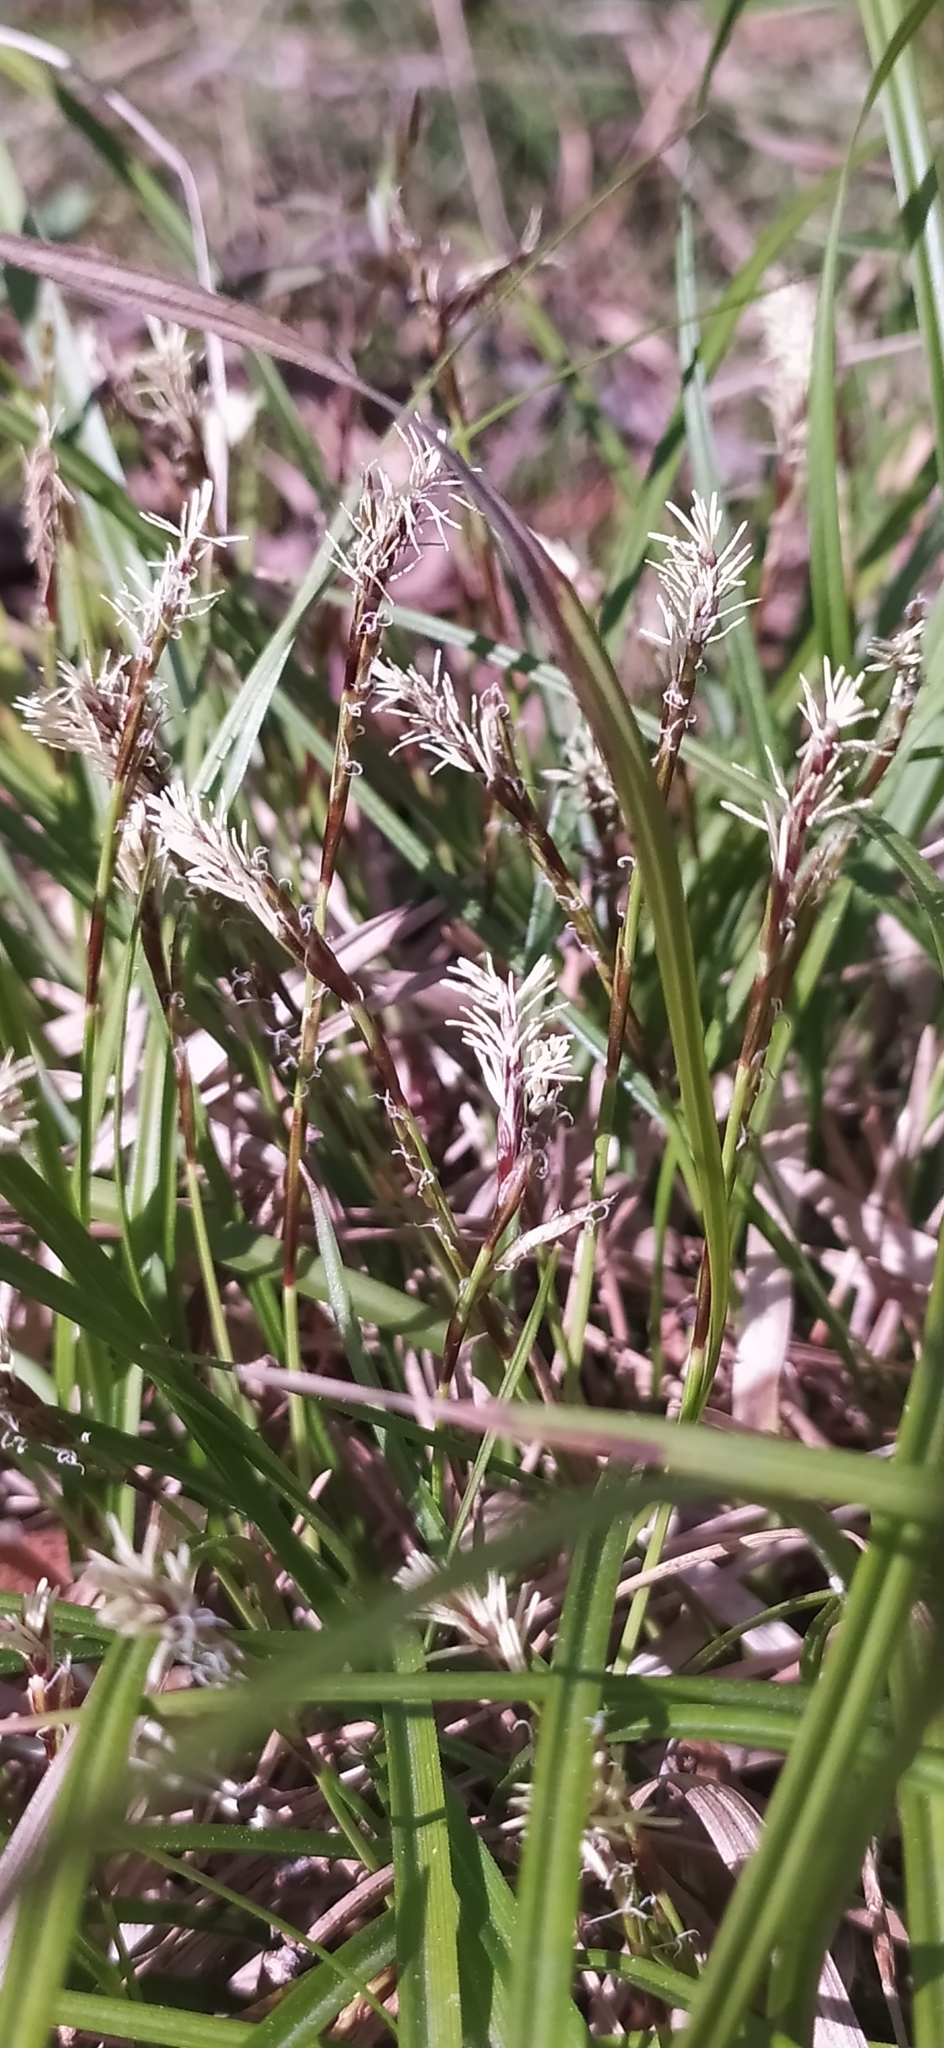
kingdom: Plantae
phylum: Tracheophyta
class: Liliopsida
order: Poales
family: Cyperaceae
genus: Carex
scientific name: Carex digitata
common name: Fingered sedge
